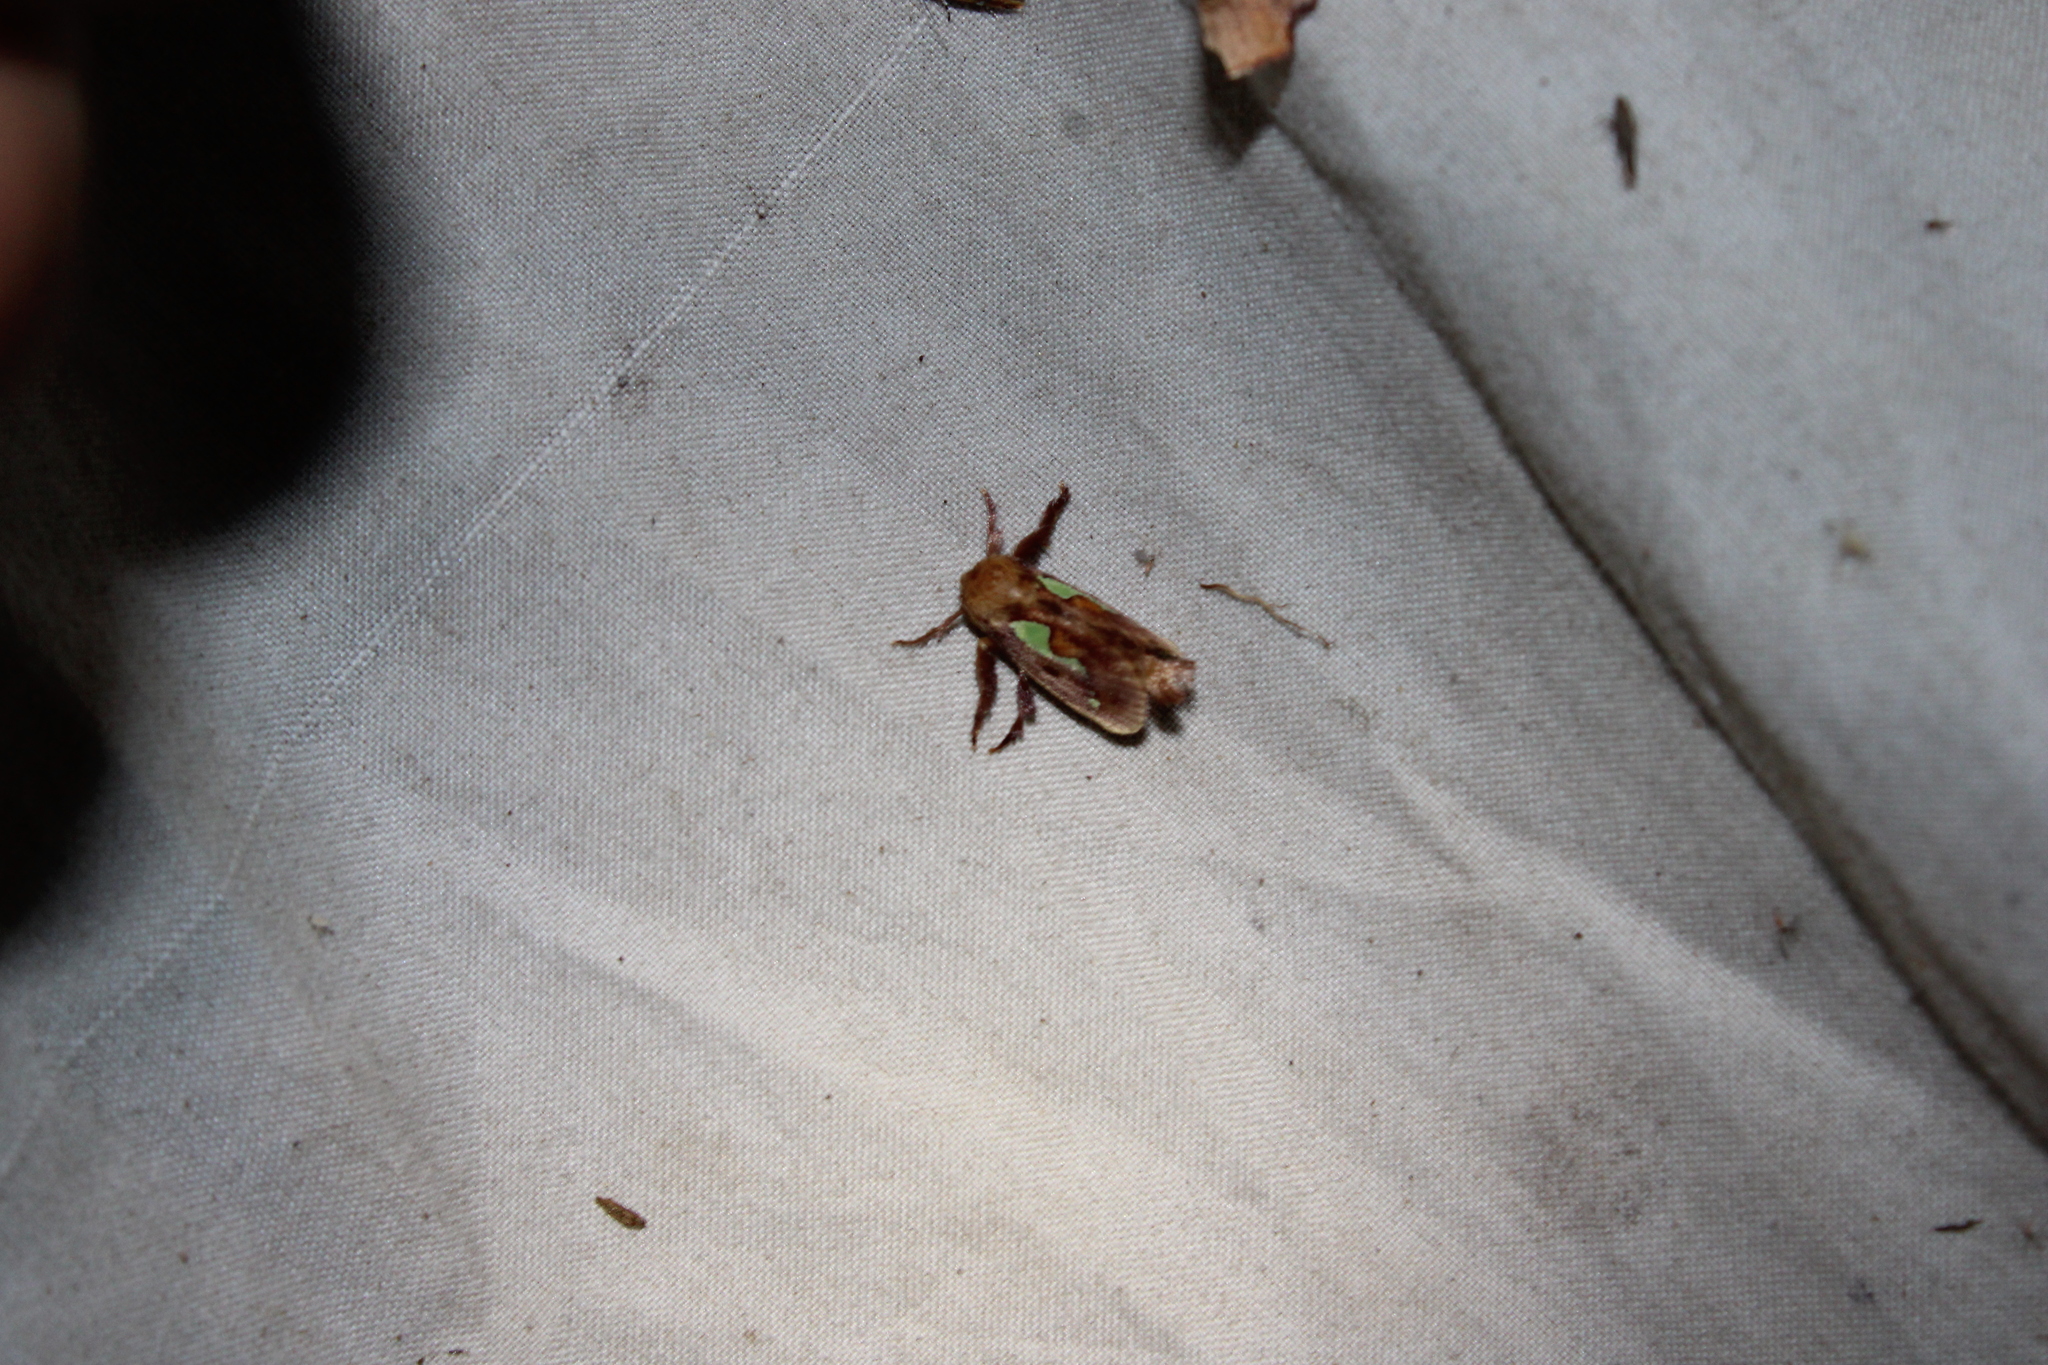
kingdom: Animalia
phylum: Arthropoda
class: Insecta
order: Lepidoptera
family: Limacodidae
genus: Euclea
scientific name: Euclea delphinii
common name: Spiny oak-slug moth
